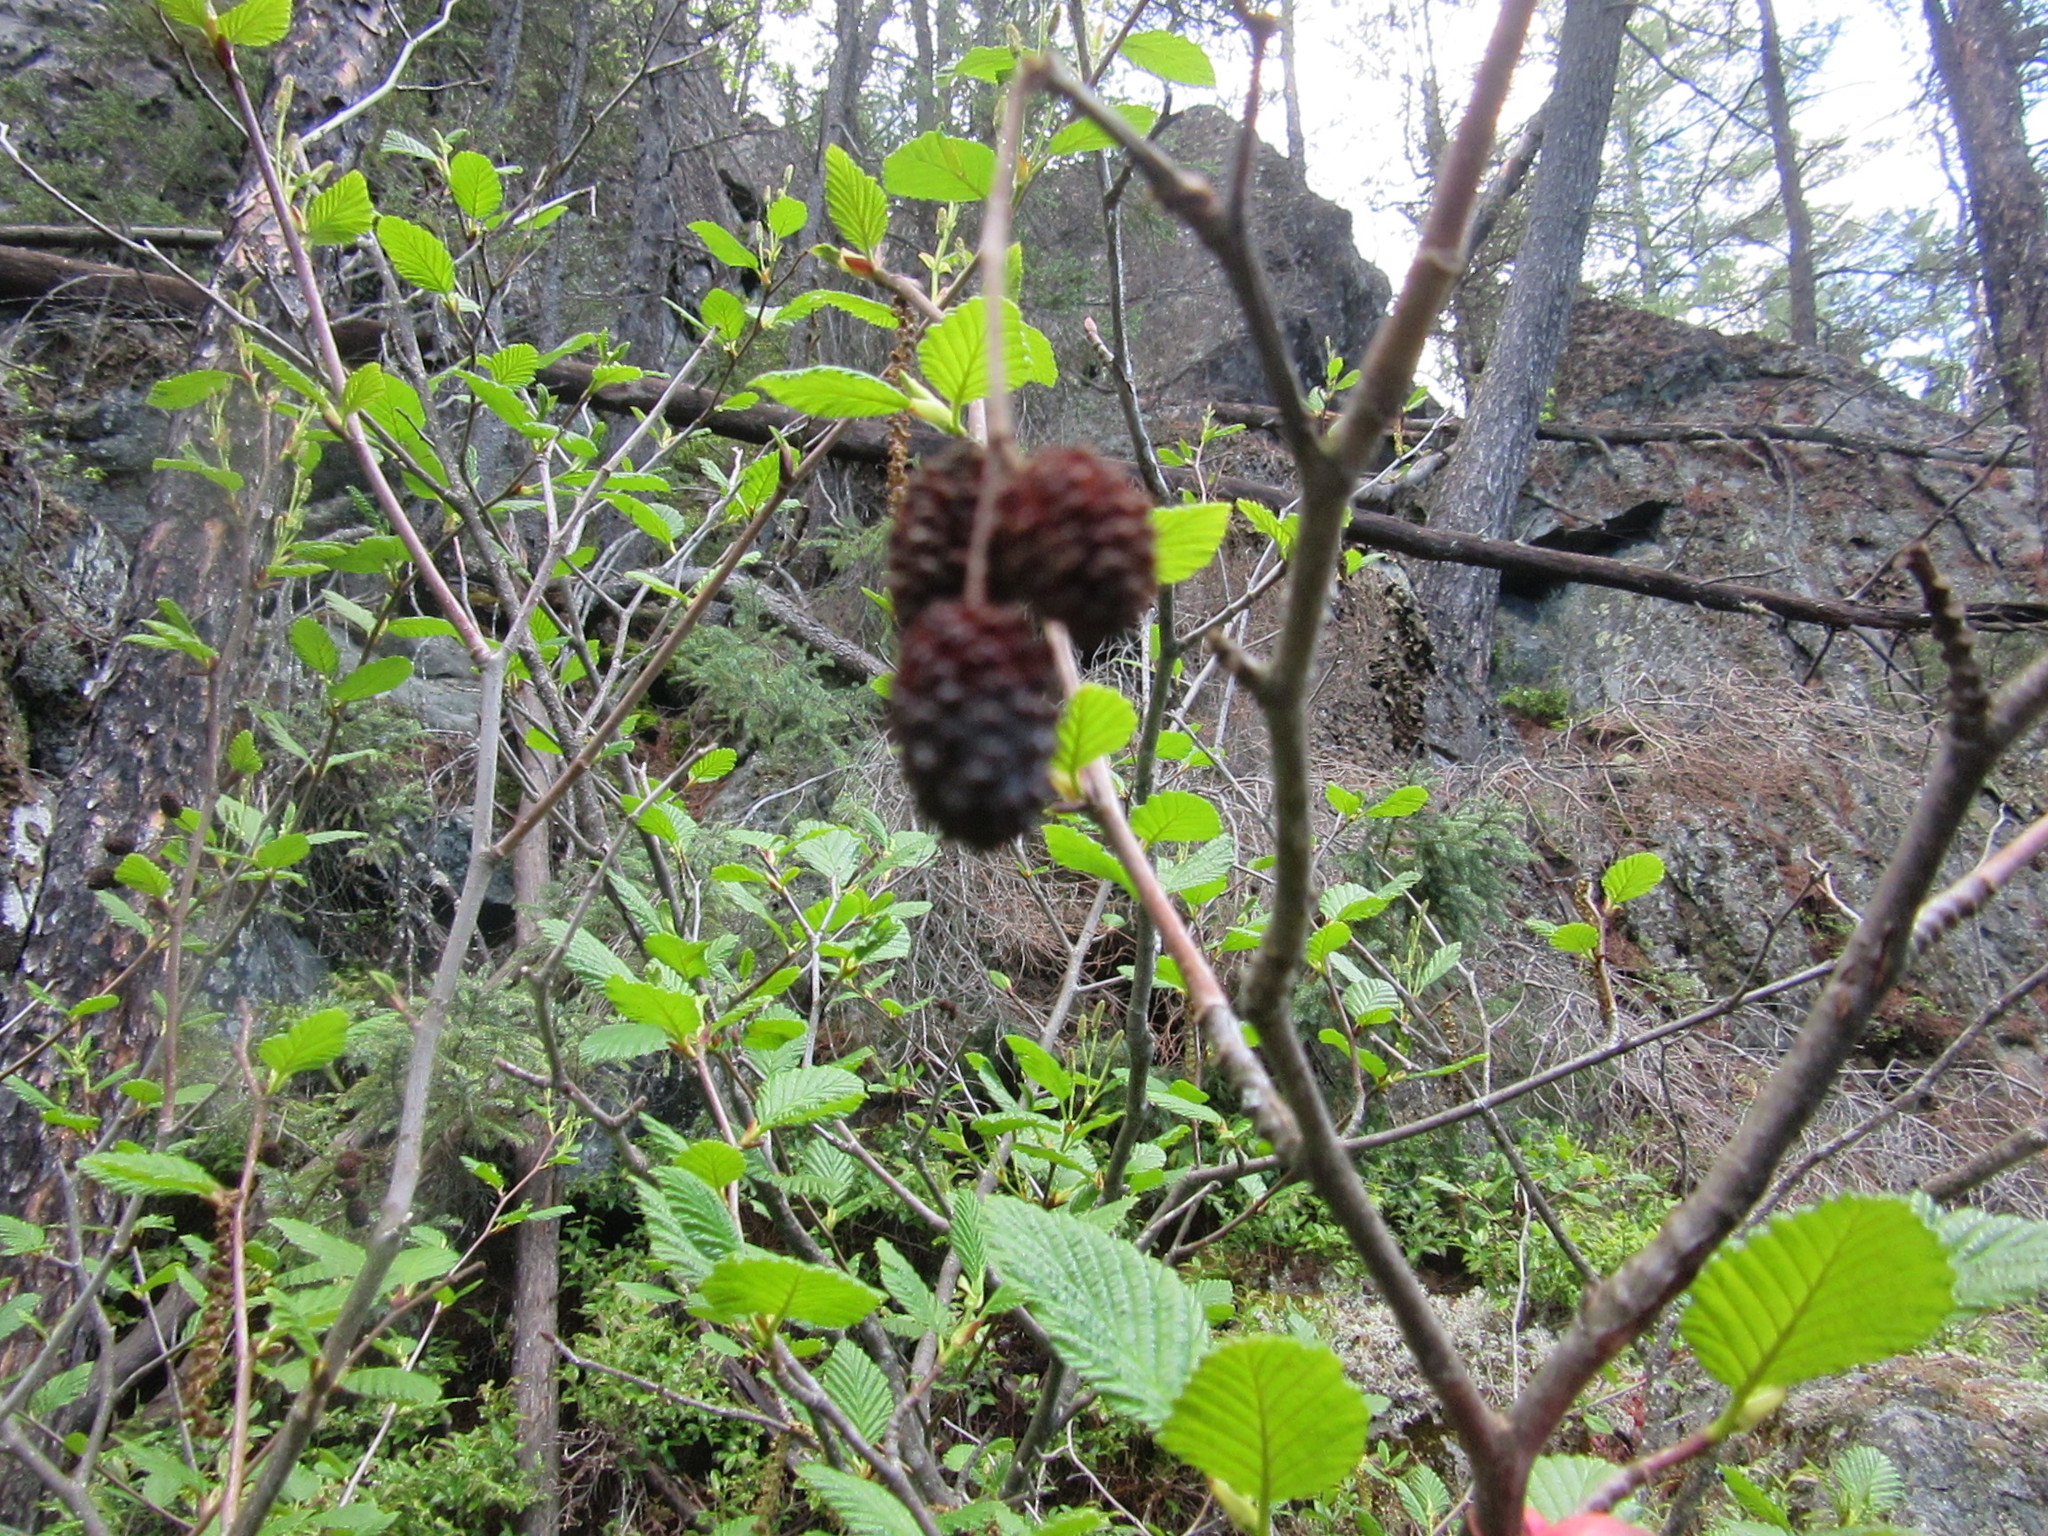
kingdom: Plantae
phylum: Tracheophyta
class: Magnoliopsida
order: Fagales
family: Betulaceae
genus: Alnus
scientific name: Alnus alnobetula
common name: Green alder
